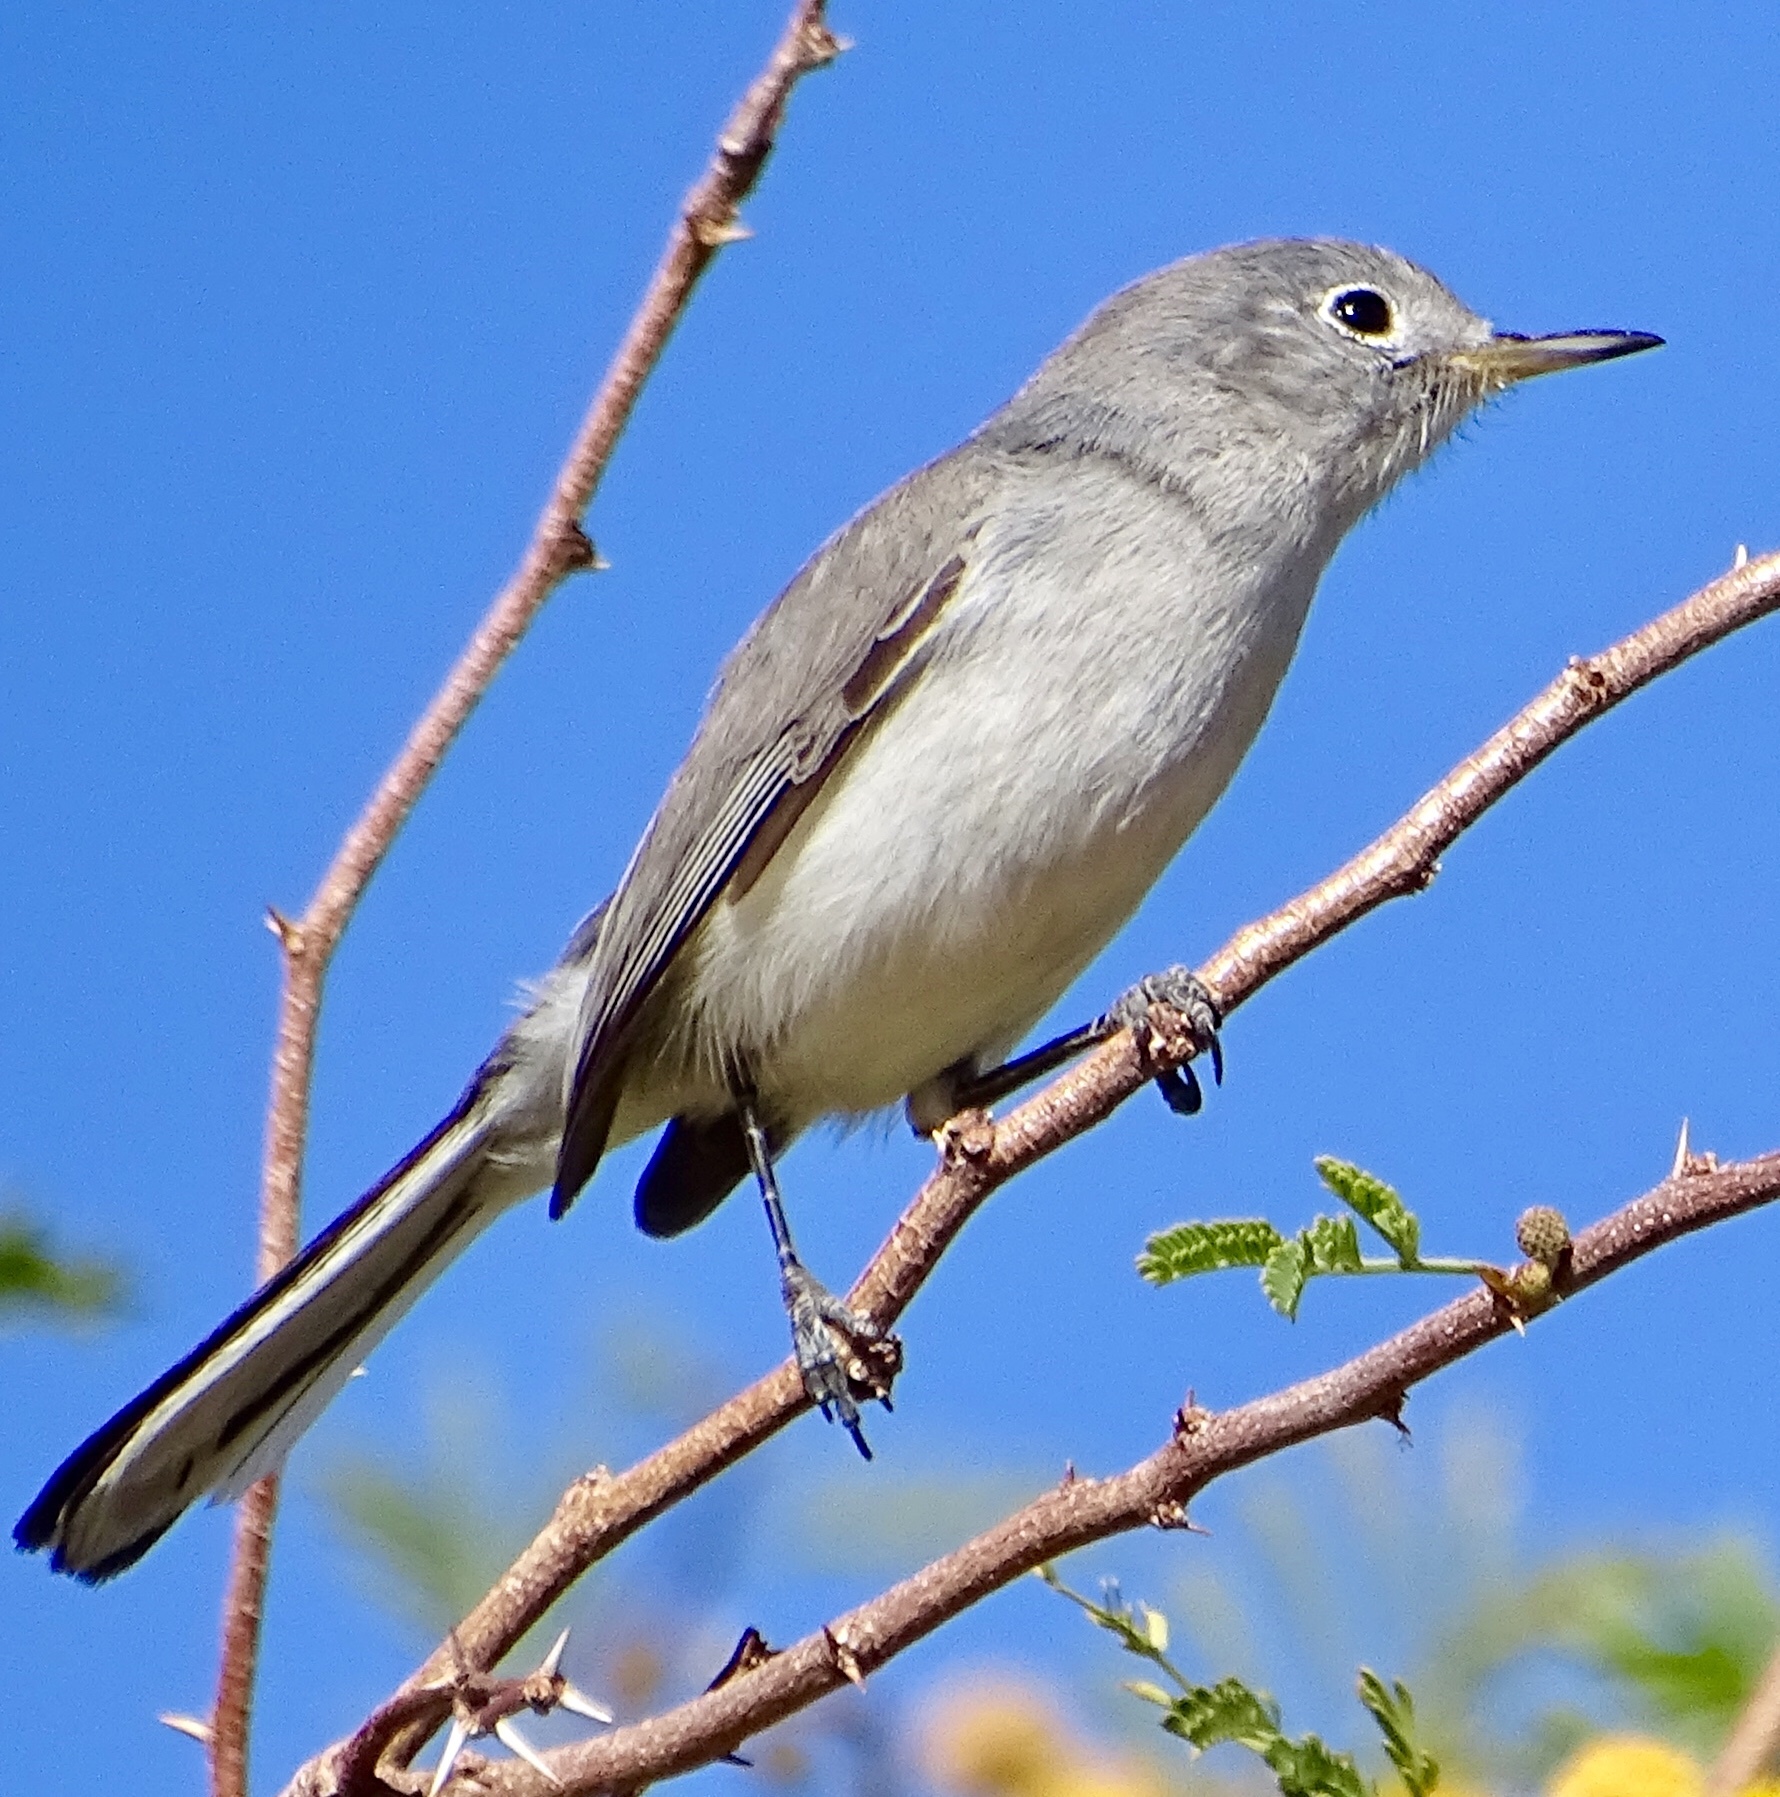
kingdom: Animalia
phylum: Chordata
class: Aves
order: Passeriformes
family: Polioptilidae
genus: Polioptila
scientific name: Polioptila caerulea
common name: Blue-gray gnatcatcher
